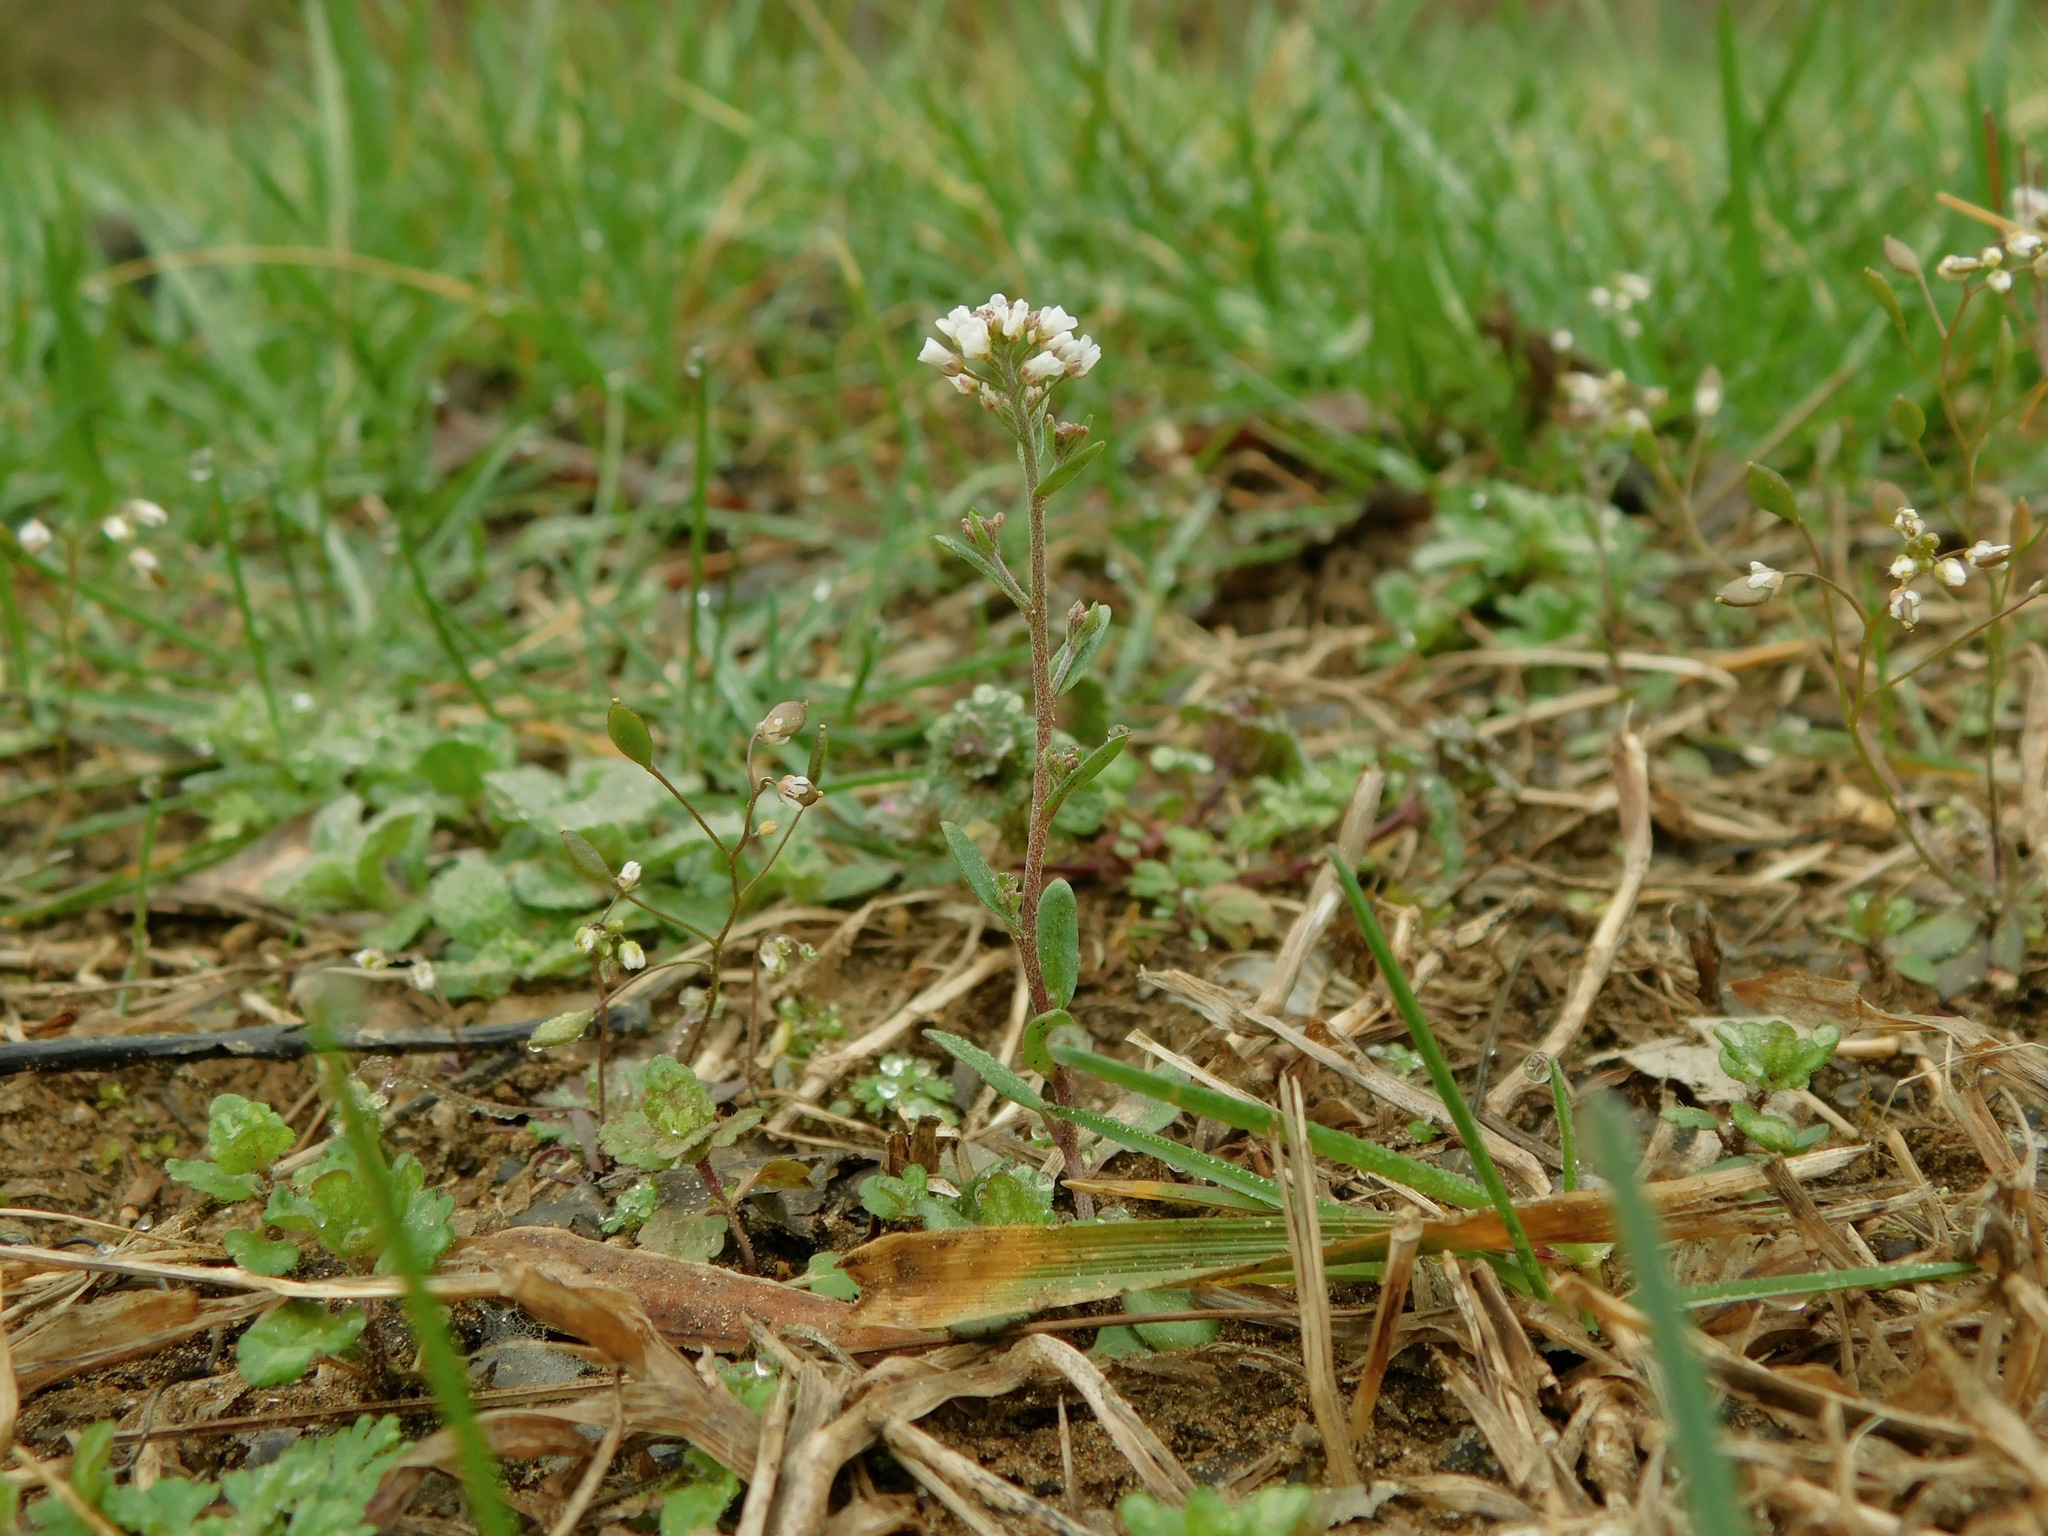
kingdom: Plantae
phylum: Tracheophyta
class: Magnoliopsida
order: Brassicales
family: Brassicaceae
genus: Abdra
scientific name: Abdra brachycarpa
